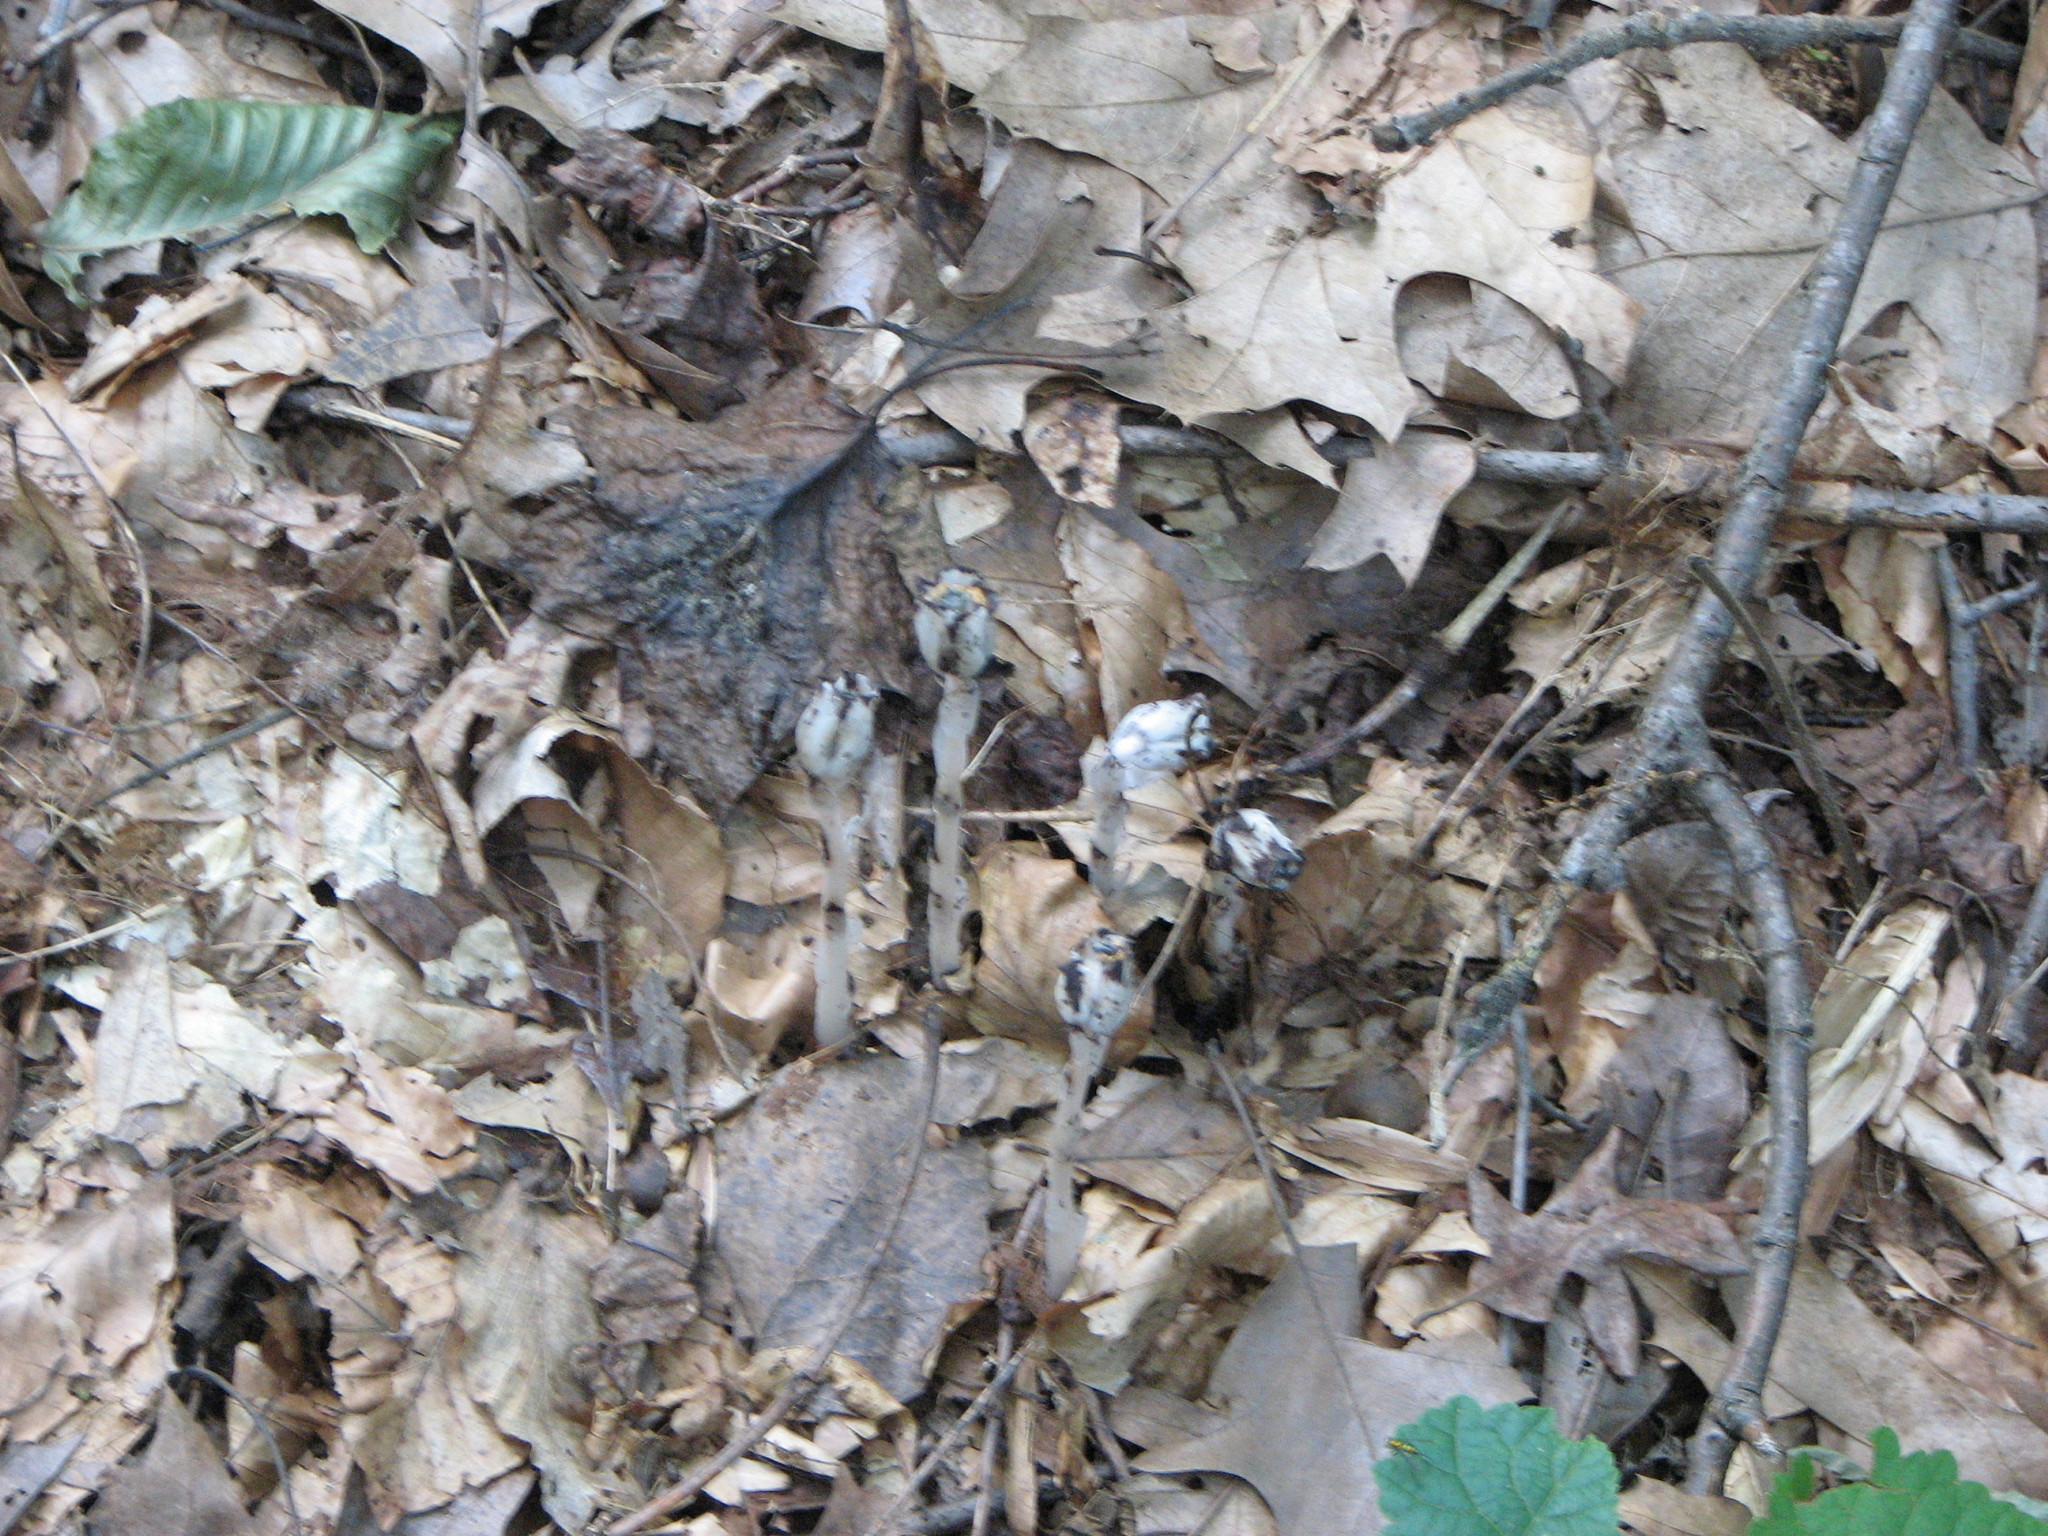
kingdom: Plantae
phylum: Tracheophyta
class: Magnoliopsida
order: Ericales
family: Ericaceae
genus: Monotropa
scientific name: Monotropa uniflora
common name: Convulsion root
